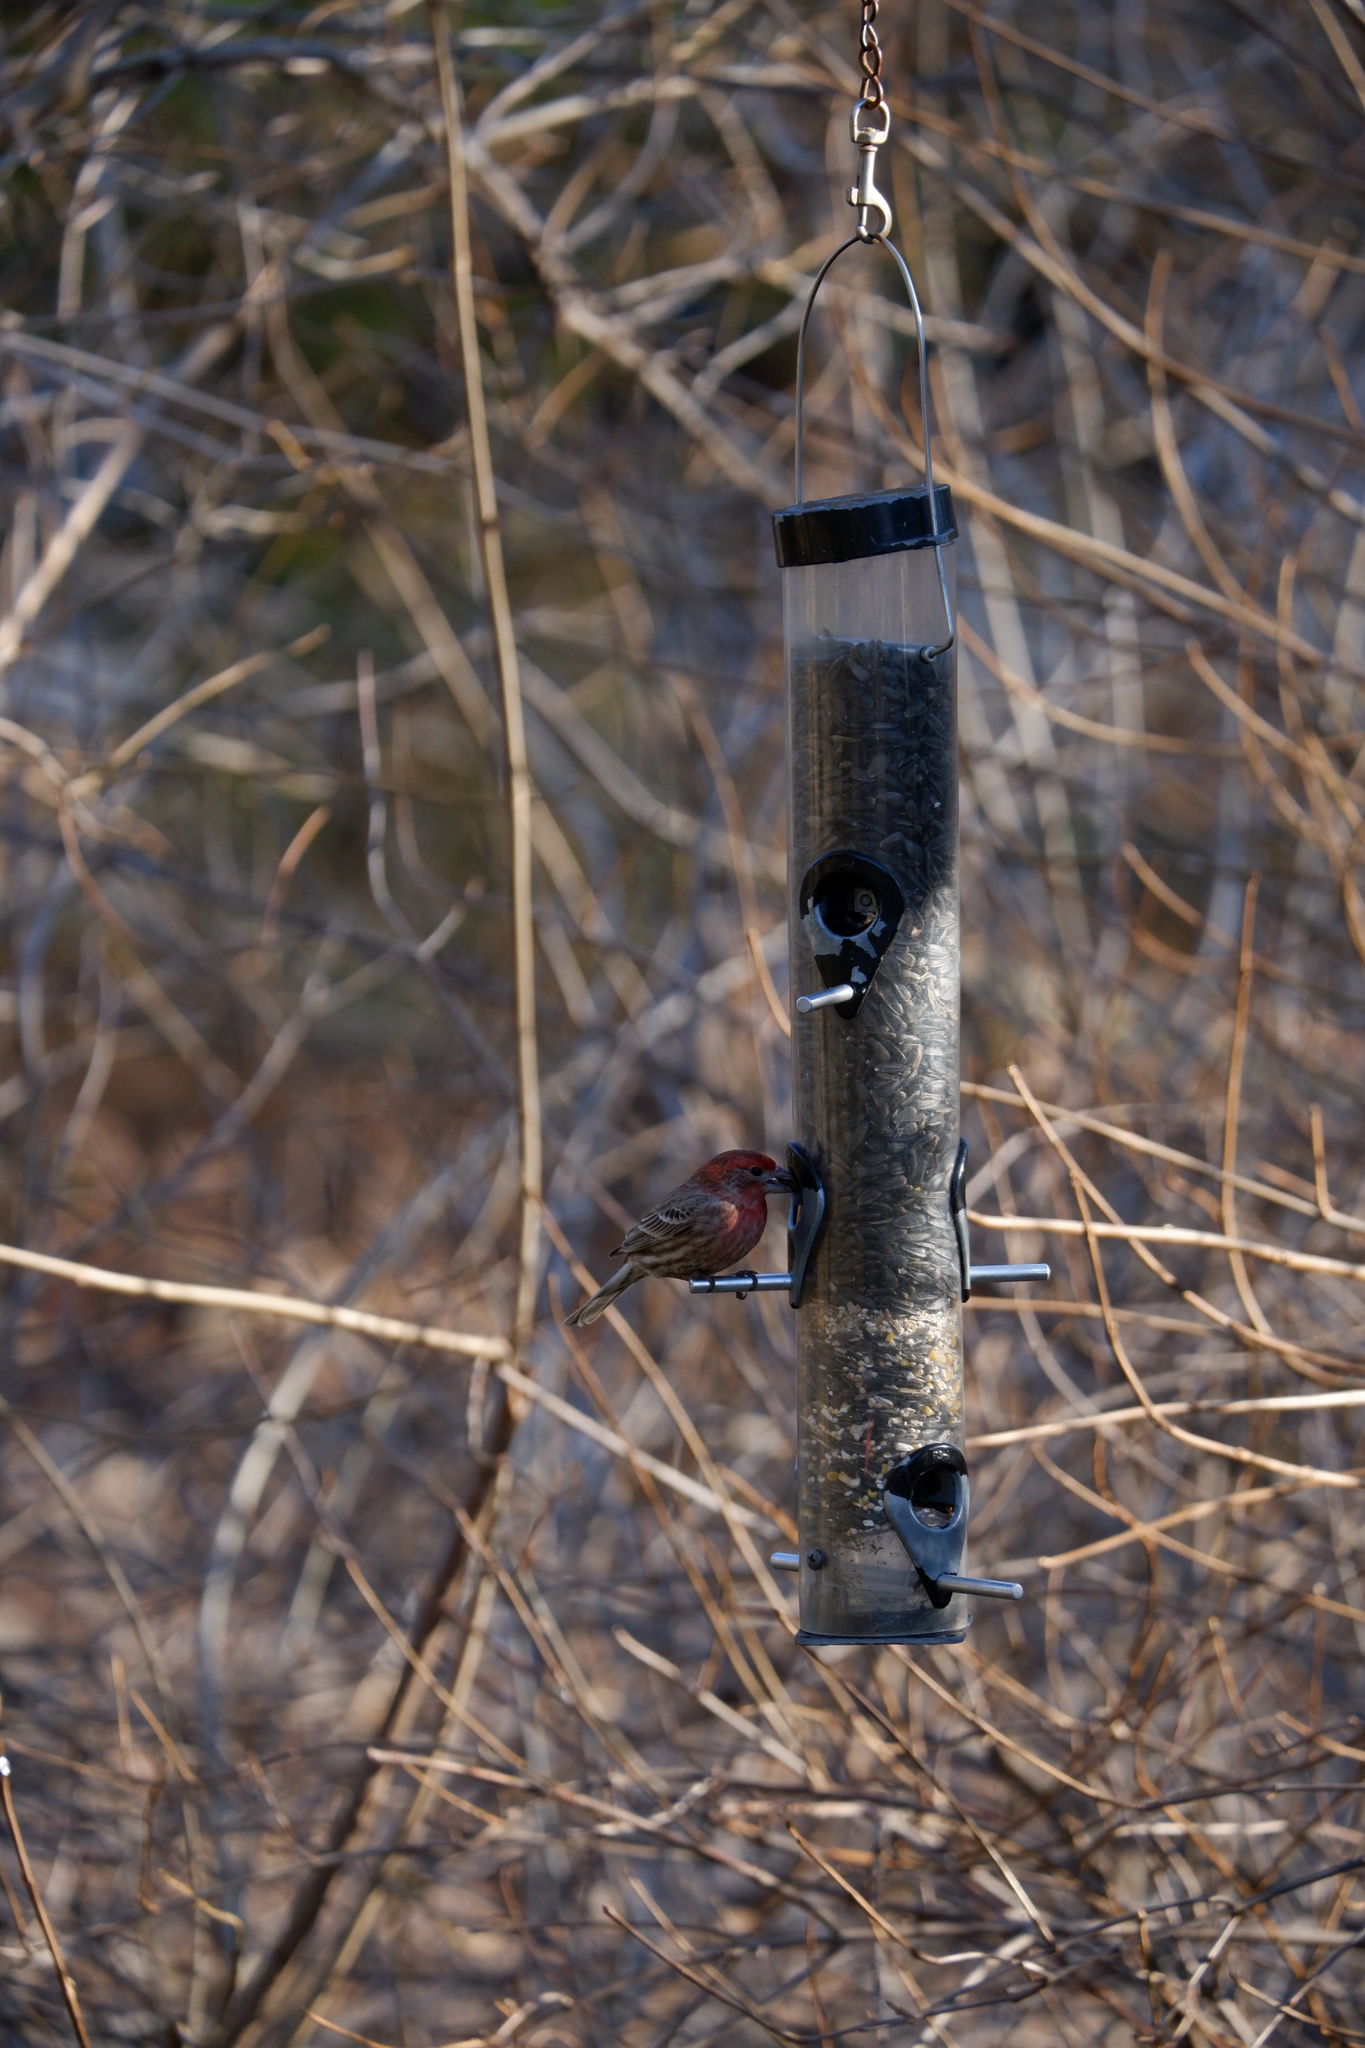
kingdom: Animalia
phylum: Chordata
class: Aves
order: Passeriformes
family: Fringillidae
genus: Haemorhous
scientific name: Haemorhous mexicanus
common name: House finch
